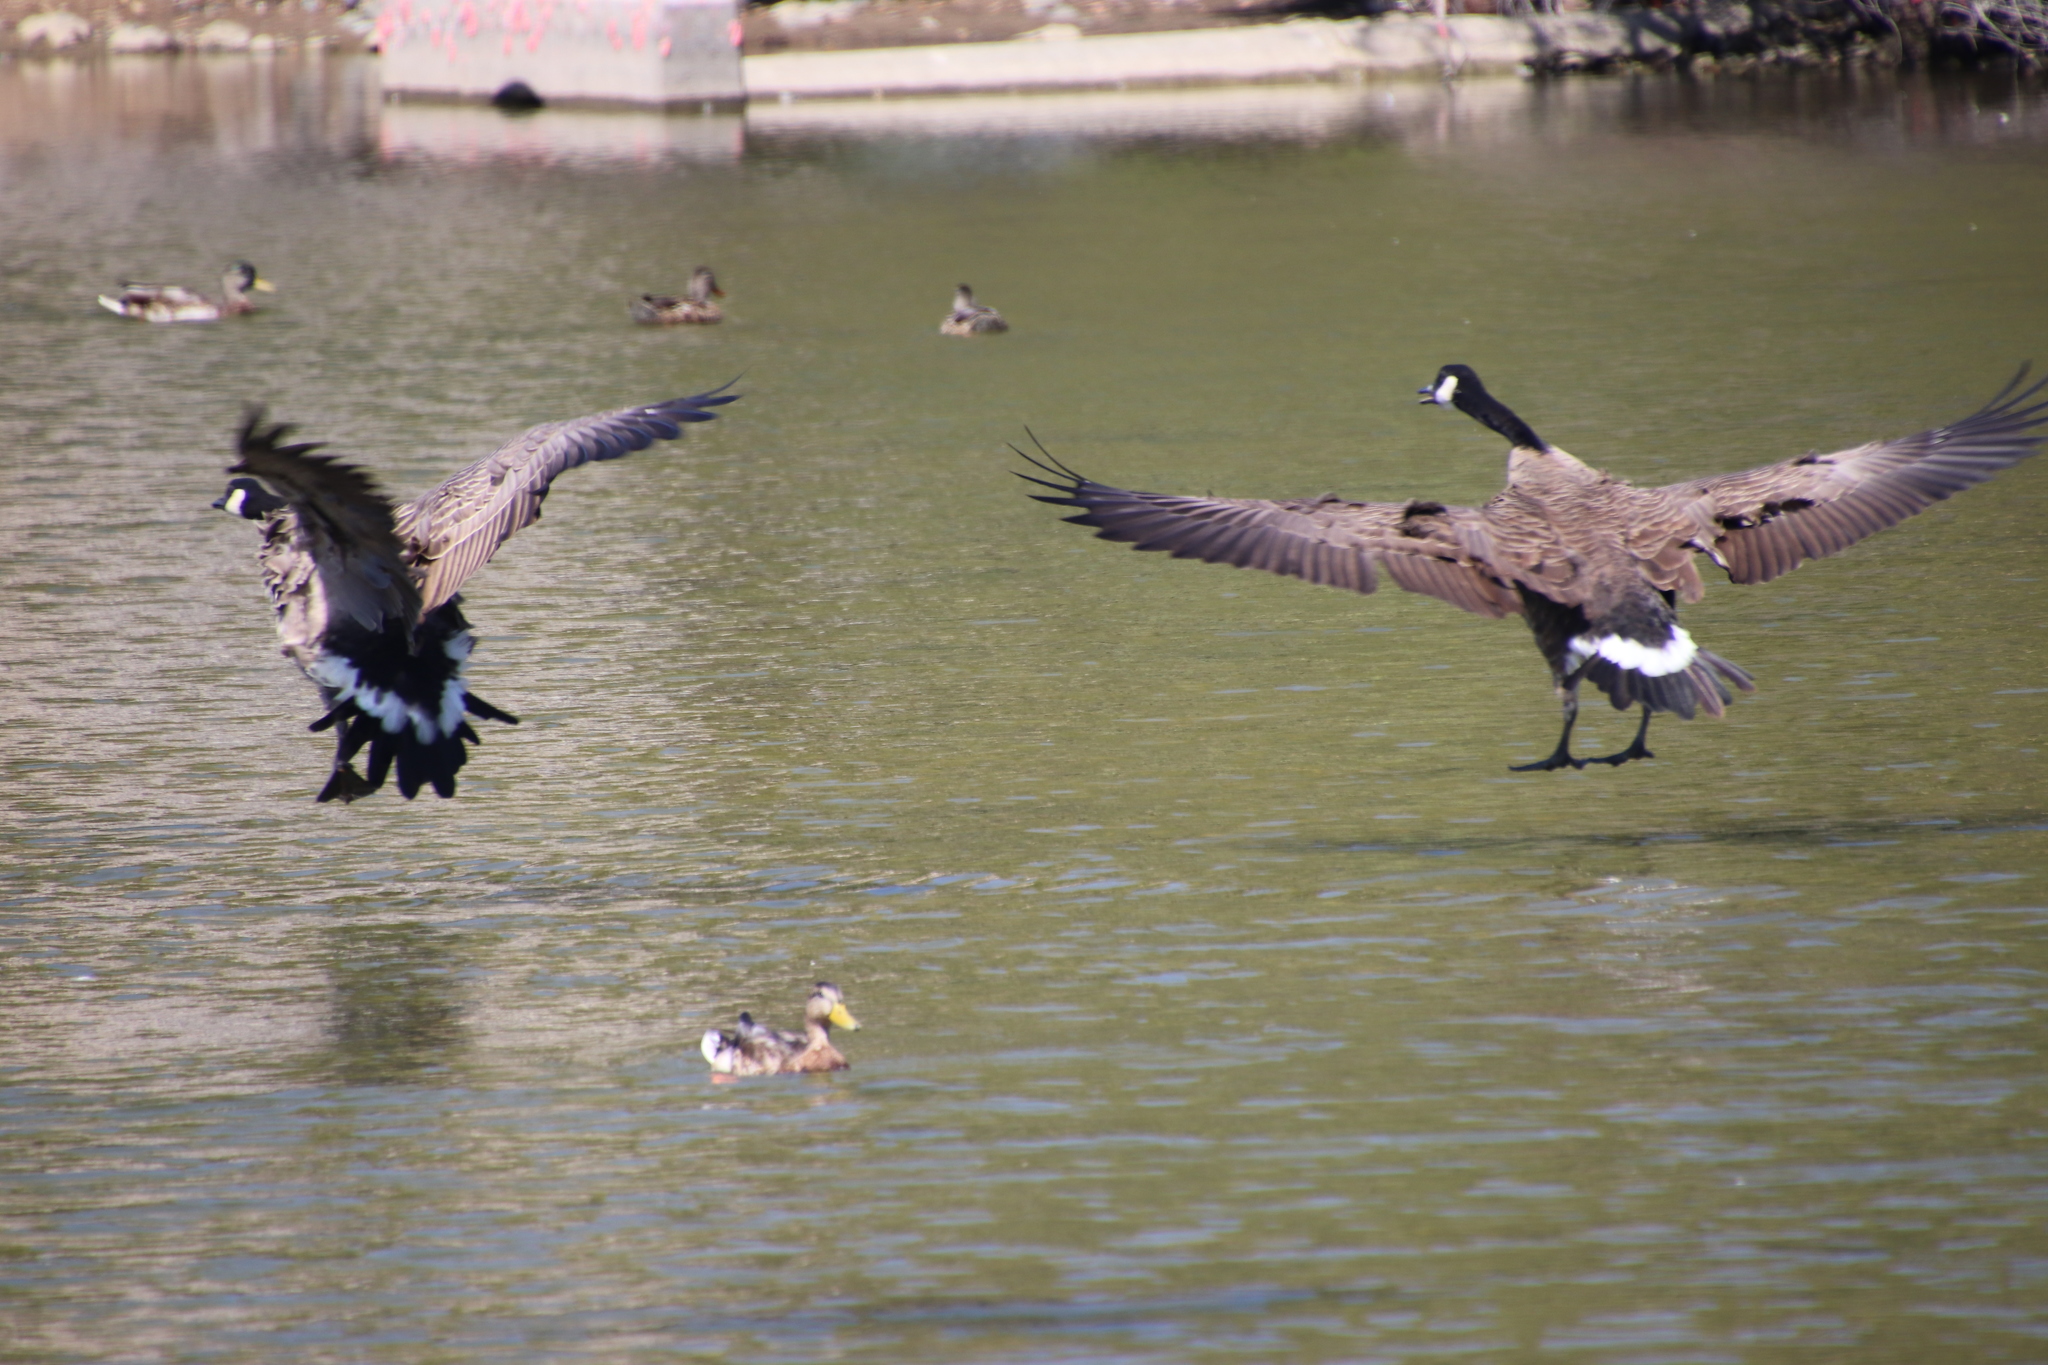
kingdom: Animalia
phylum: Chordata
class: Aves
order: Anseriformes
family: Anatidae
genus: Branta
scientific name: Branta canadensis
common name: Canada goose
